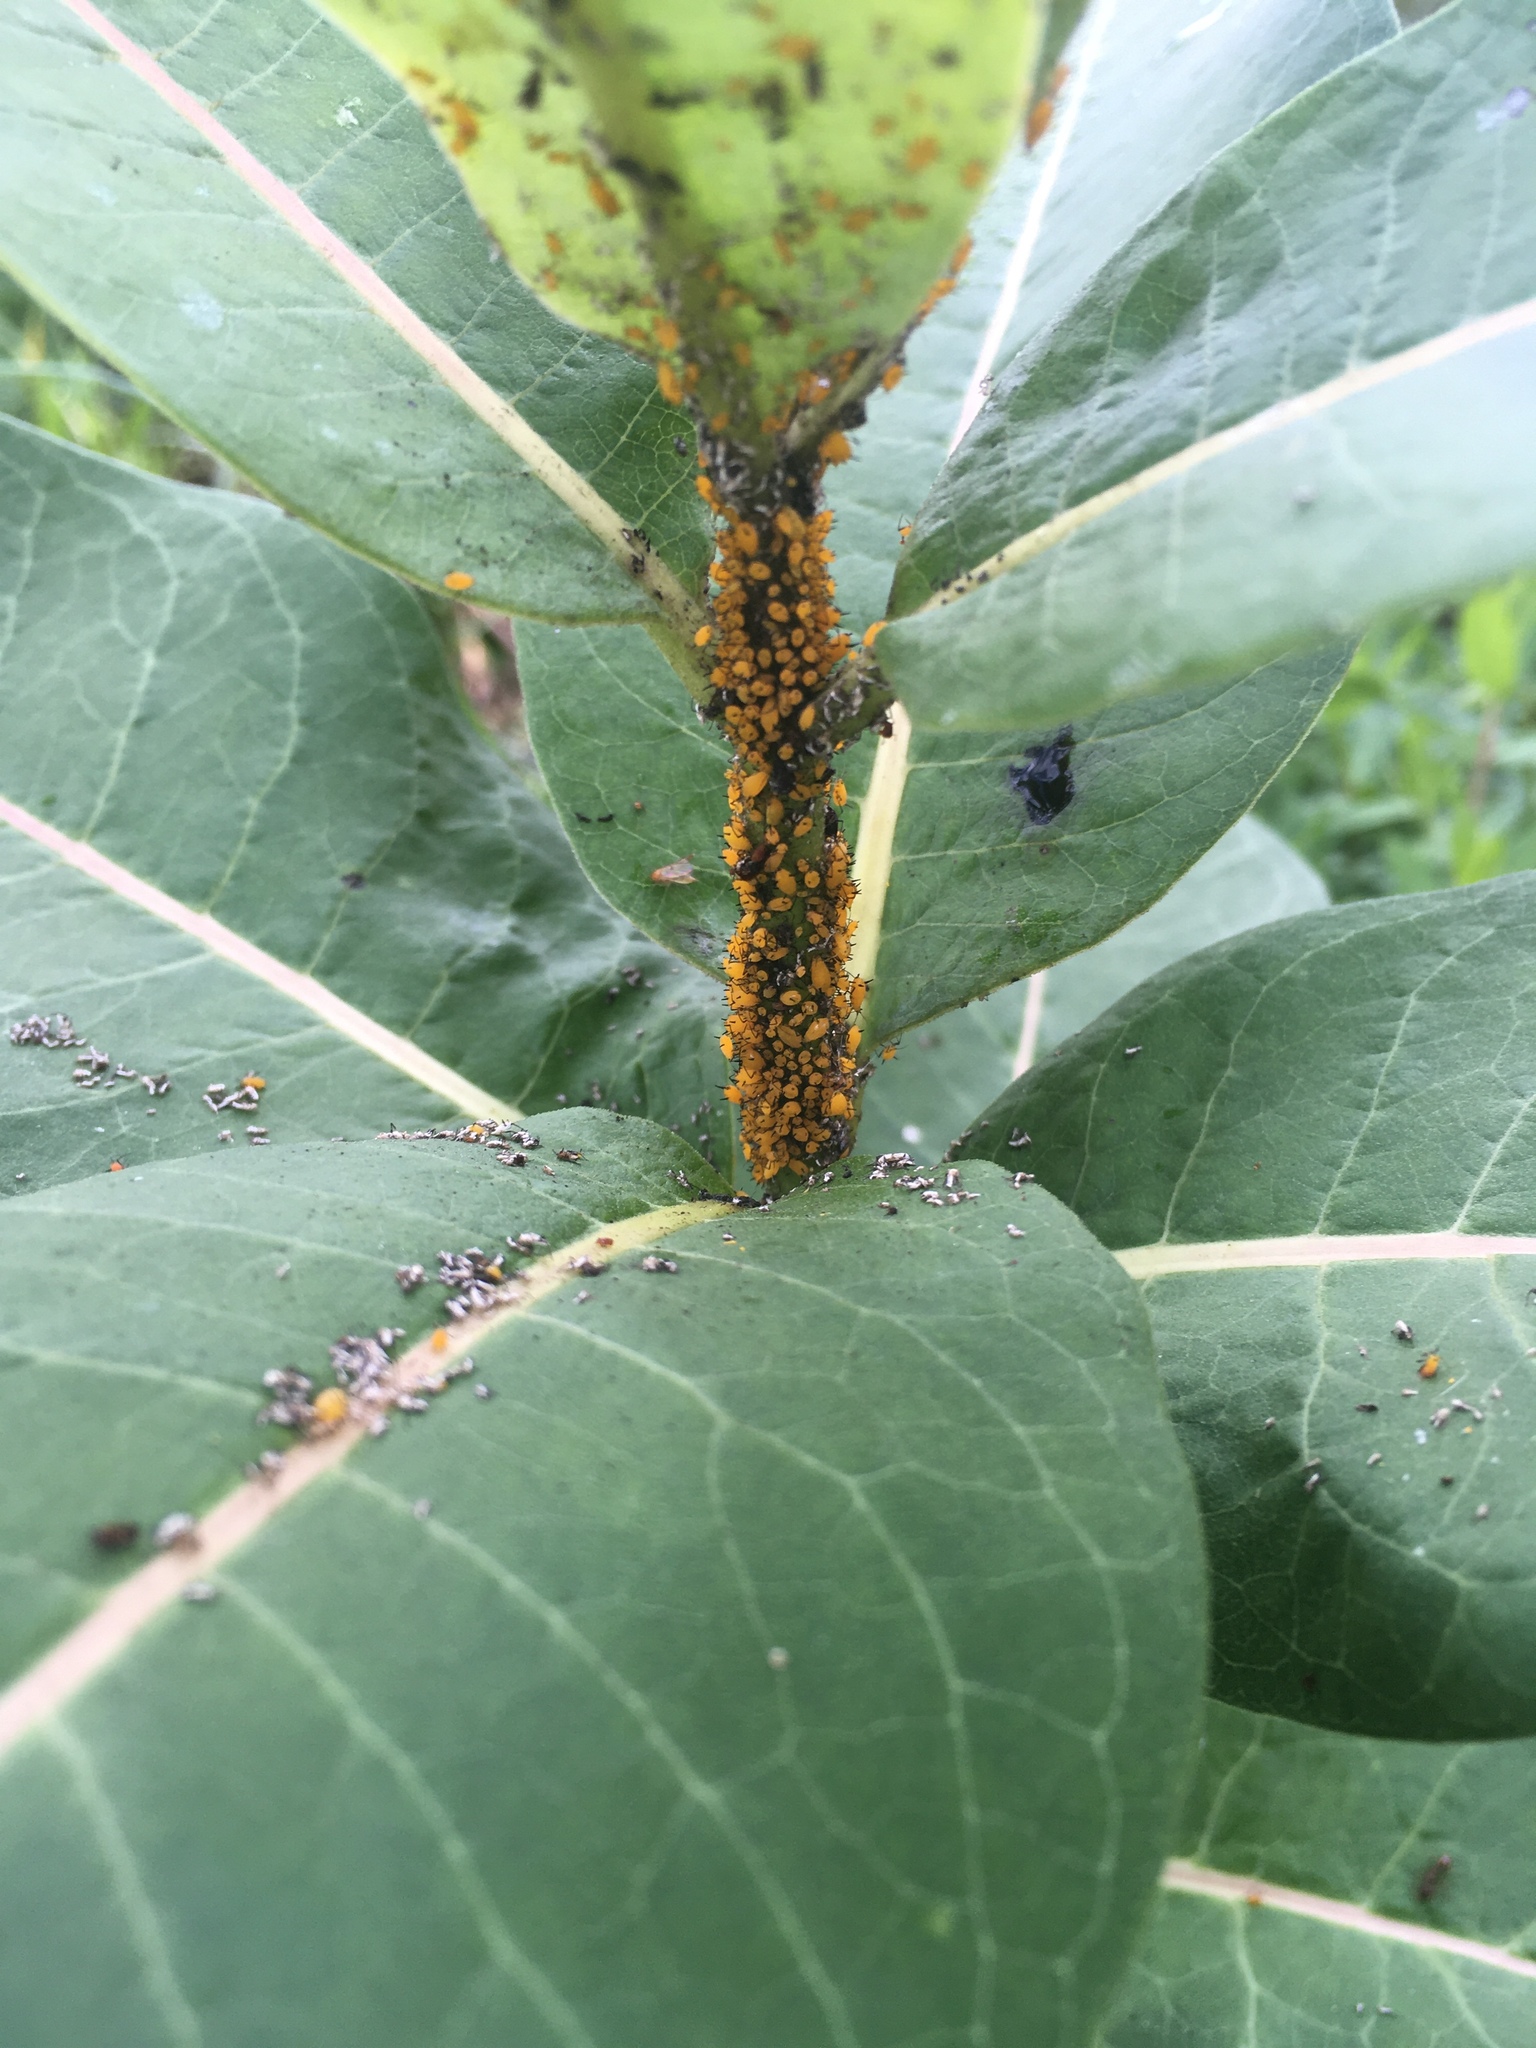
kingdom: Animalia
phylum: Arthropoda
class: Insecta
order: Hemiptera
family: Aphididae
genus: Aphis
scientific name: Aphis nerii
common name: Oleander aphid
